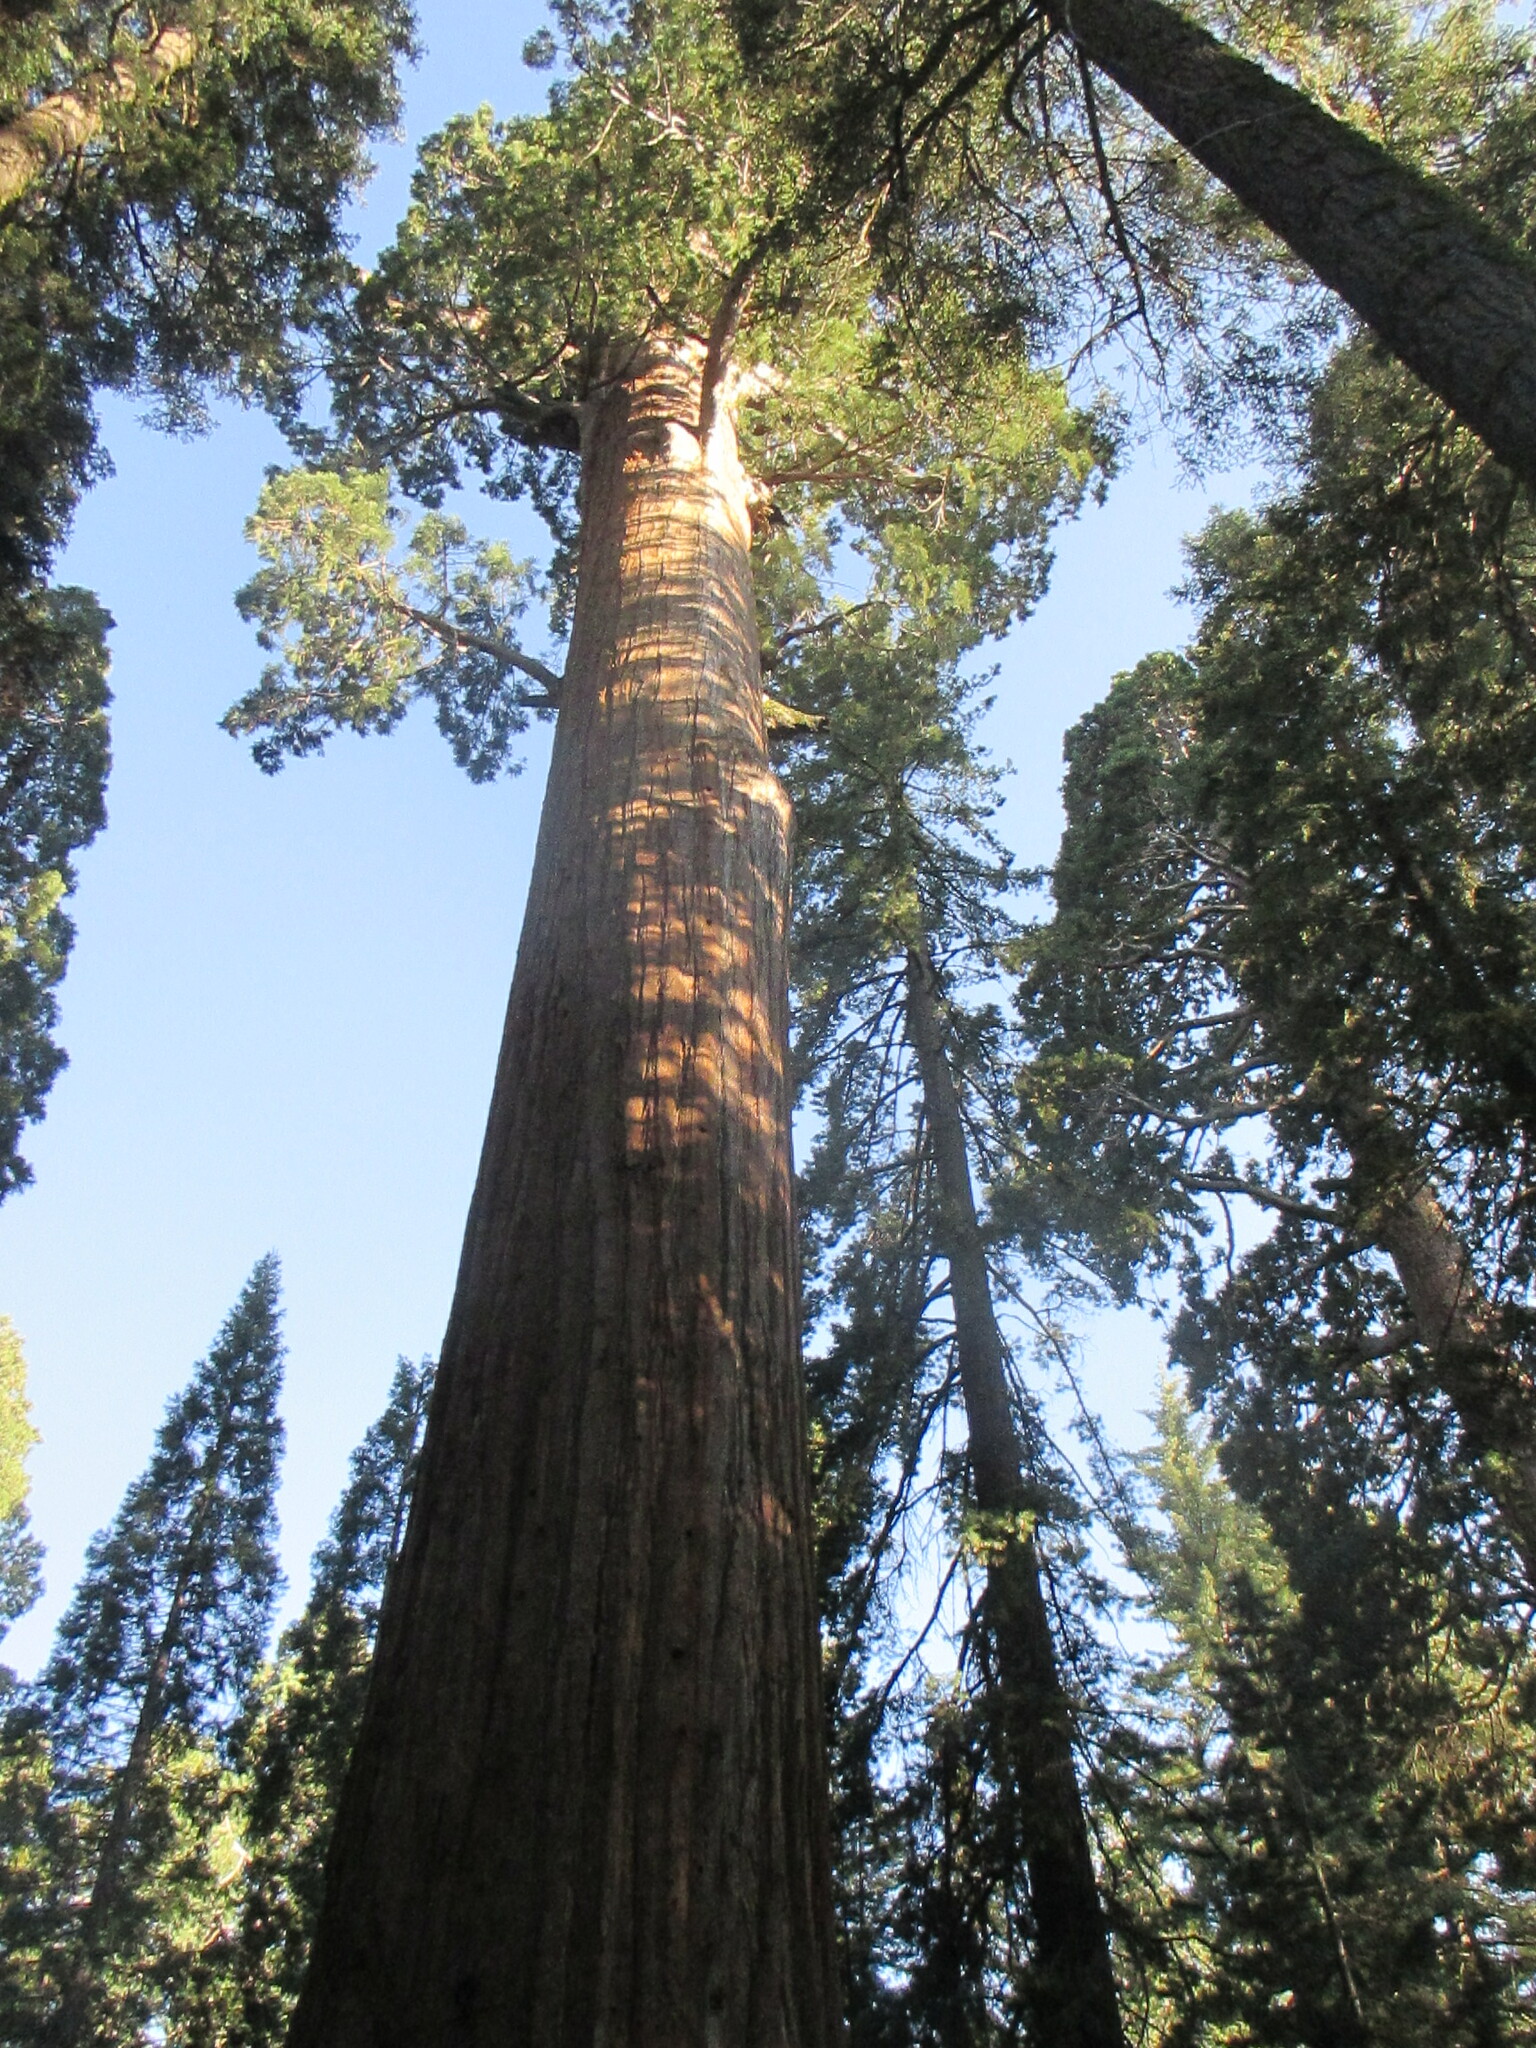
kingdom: Plantae
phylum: Tracheophyta
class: Pinopsida
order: Pinales
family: Cupressaceae
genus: Sequoiadendron
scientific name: Sequoiadendron giganteum
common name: Wellingtonia
